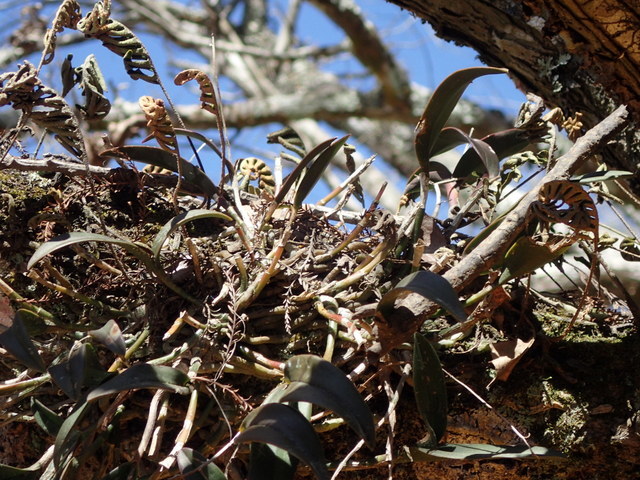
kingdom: Plantae
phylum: Tracheophyta
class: Liliopsida
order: Asparagales
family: Orchidaceae
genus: Epidendrum
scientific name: Epidendrum conopseum
